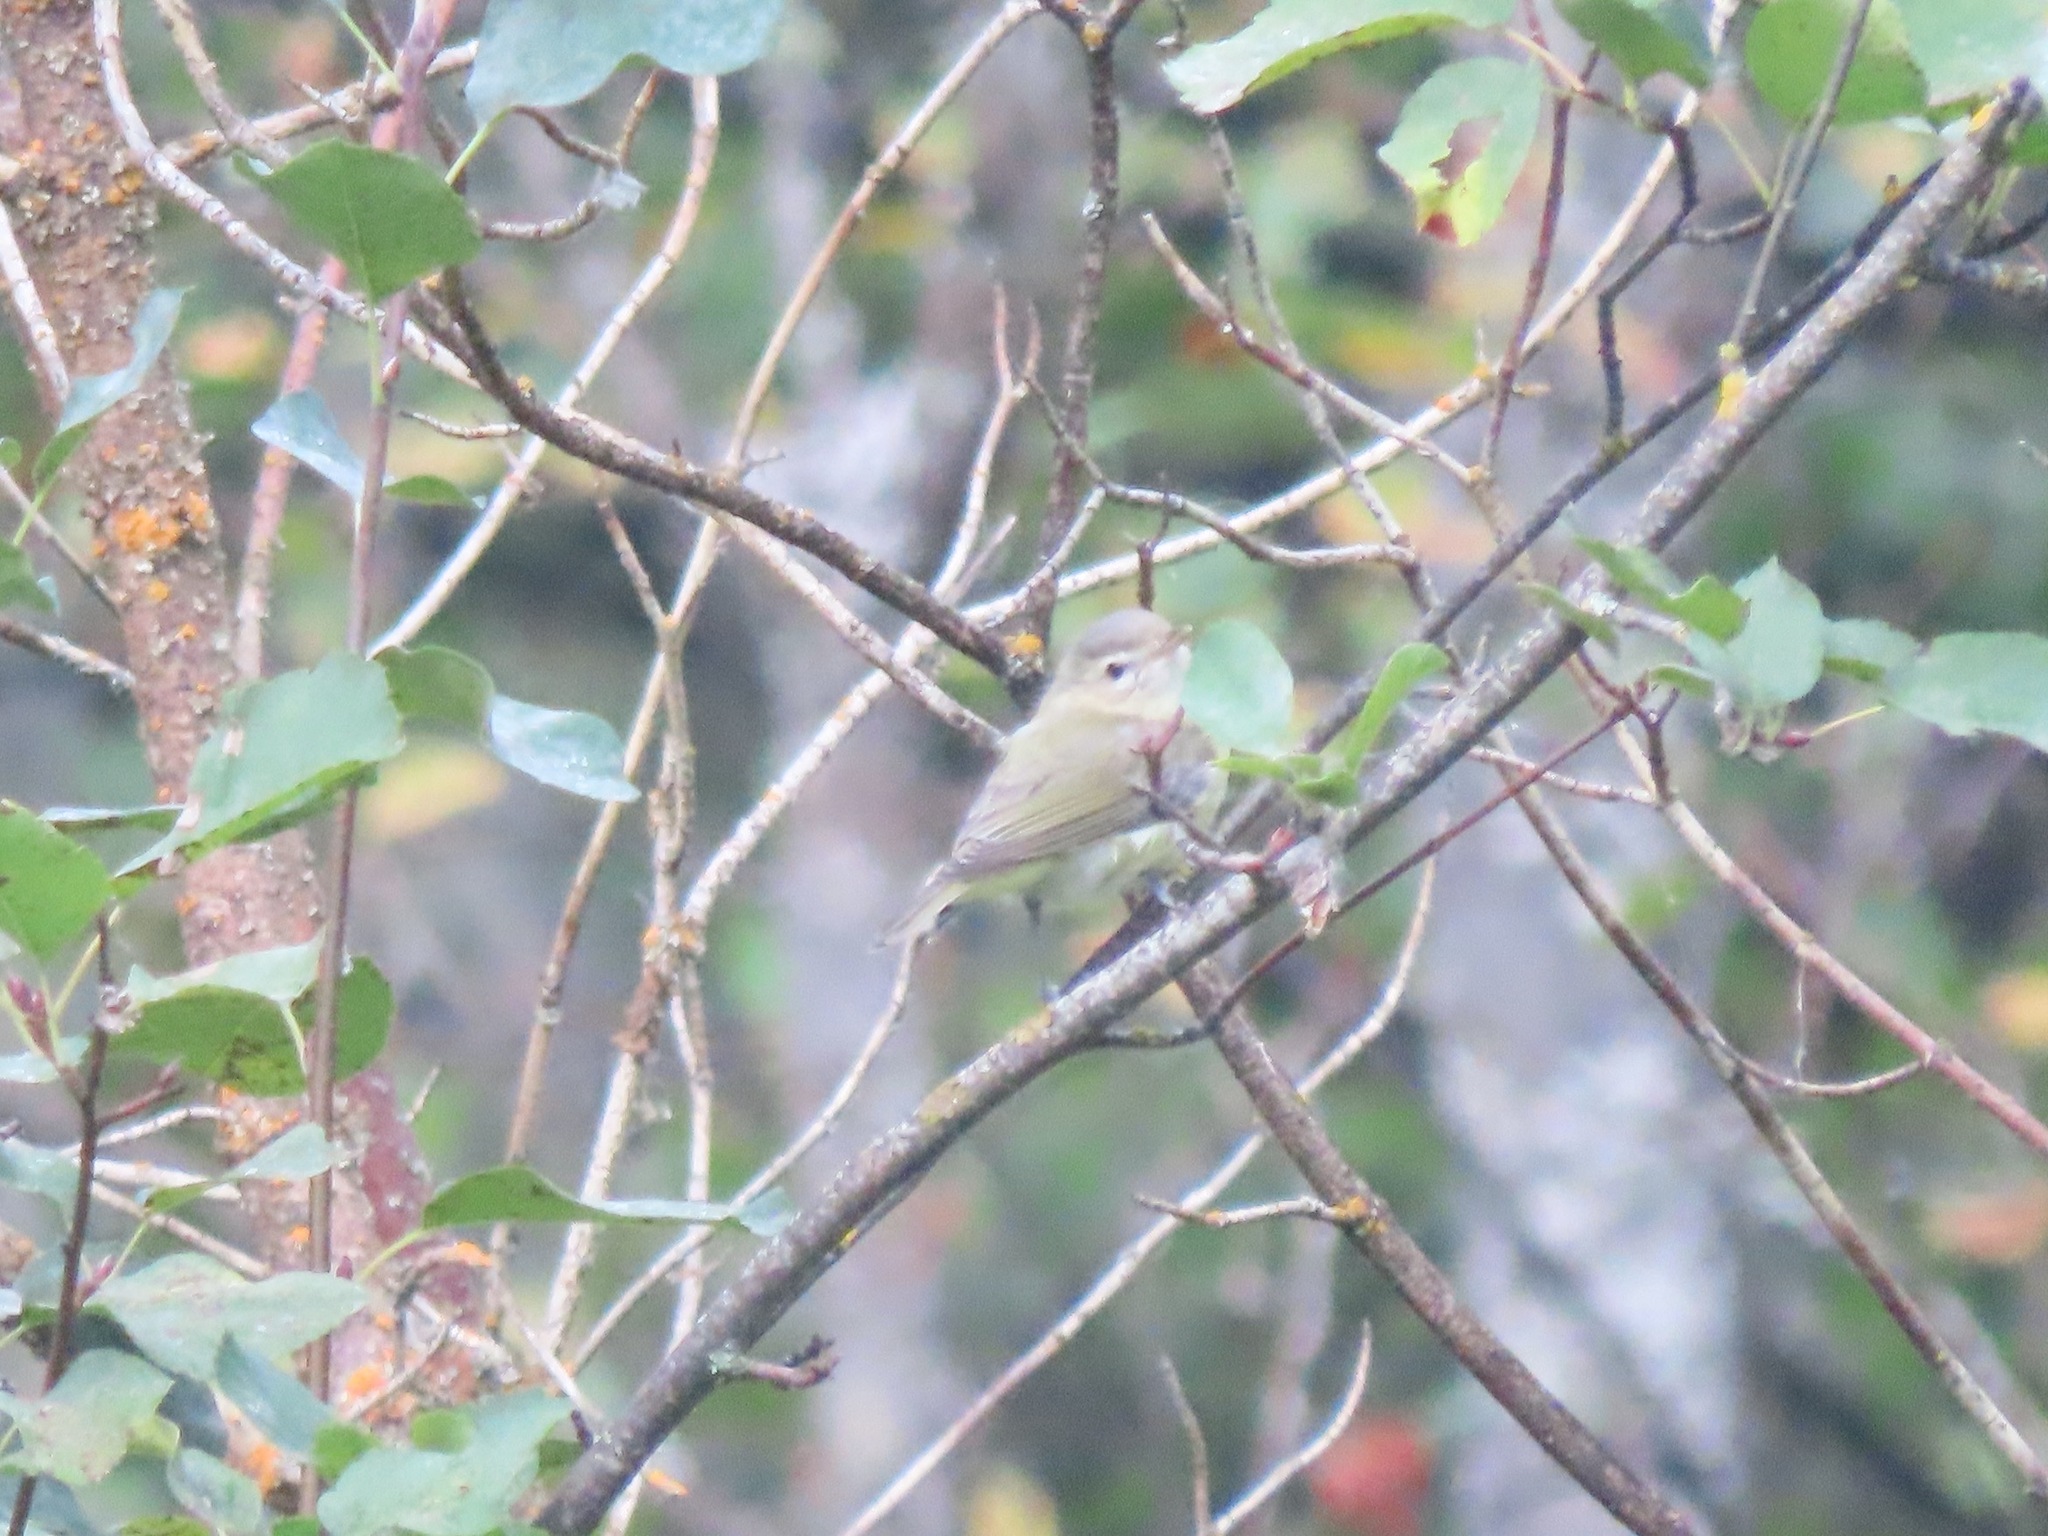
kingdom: Animalia
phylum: Chordata
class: Aves
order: Passeriformes
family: Vireonidae
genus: Vireo
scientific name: Vireo gilvus
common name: Warbling vireo
